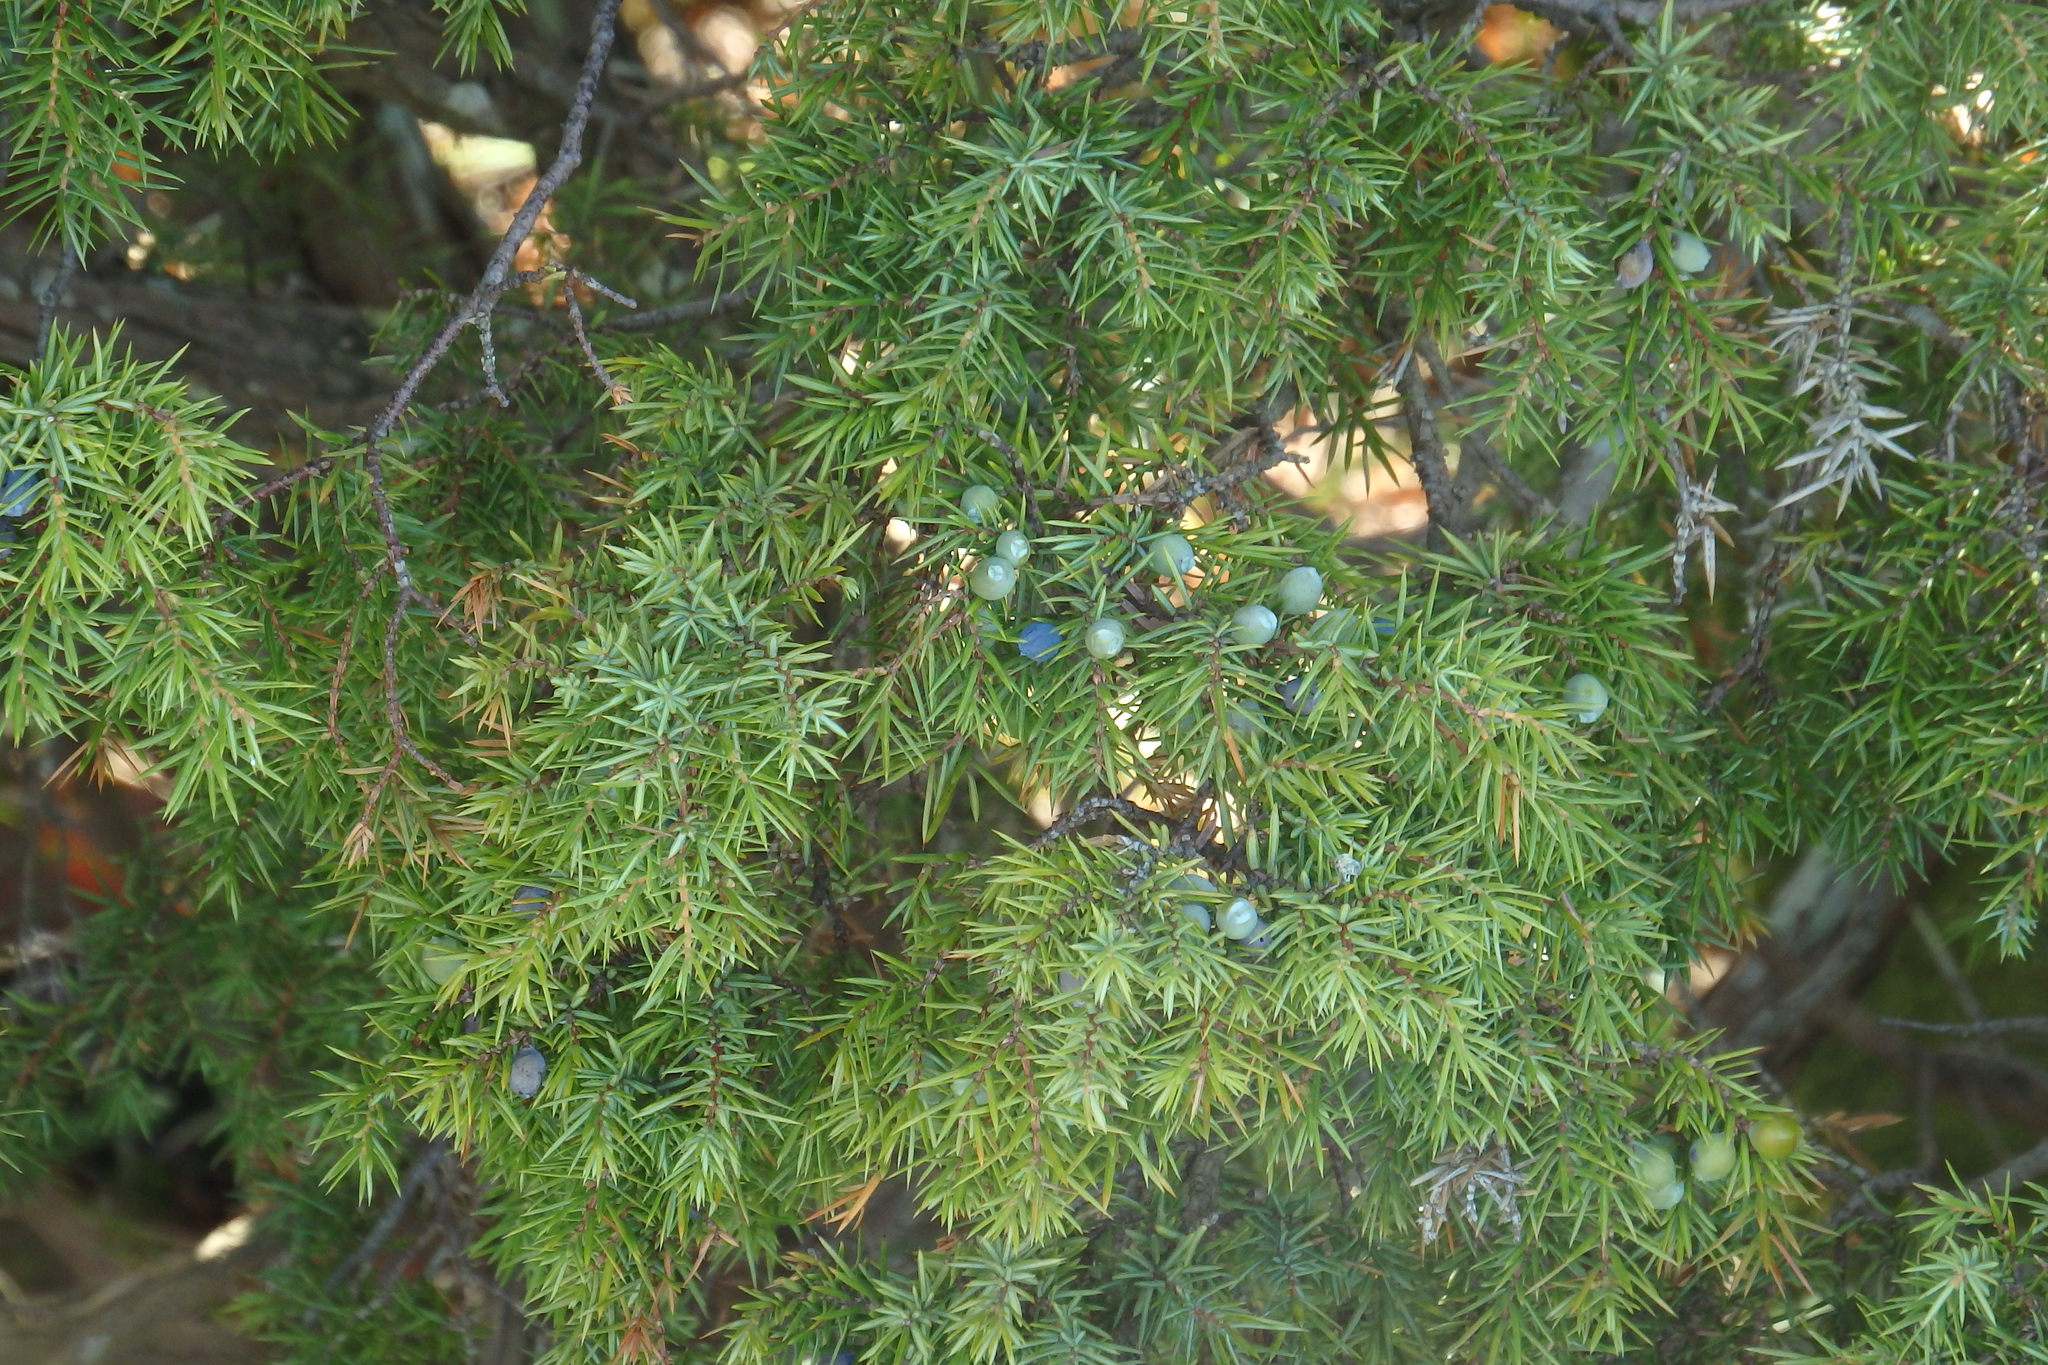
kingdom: Plantae
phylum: Tracheophyta
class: Pinopsida
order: Pinales
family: Cupressaceae
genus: Juniperus
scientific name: Juniperus communis
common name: Common juniper
